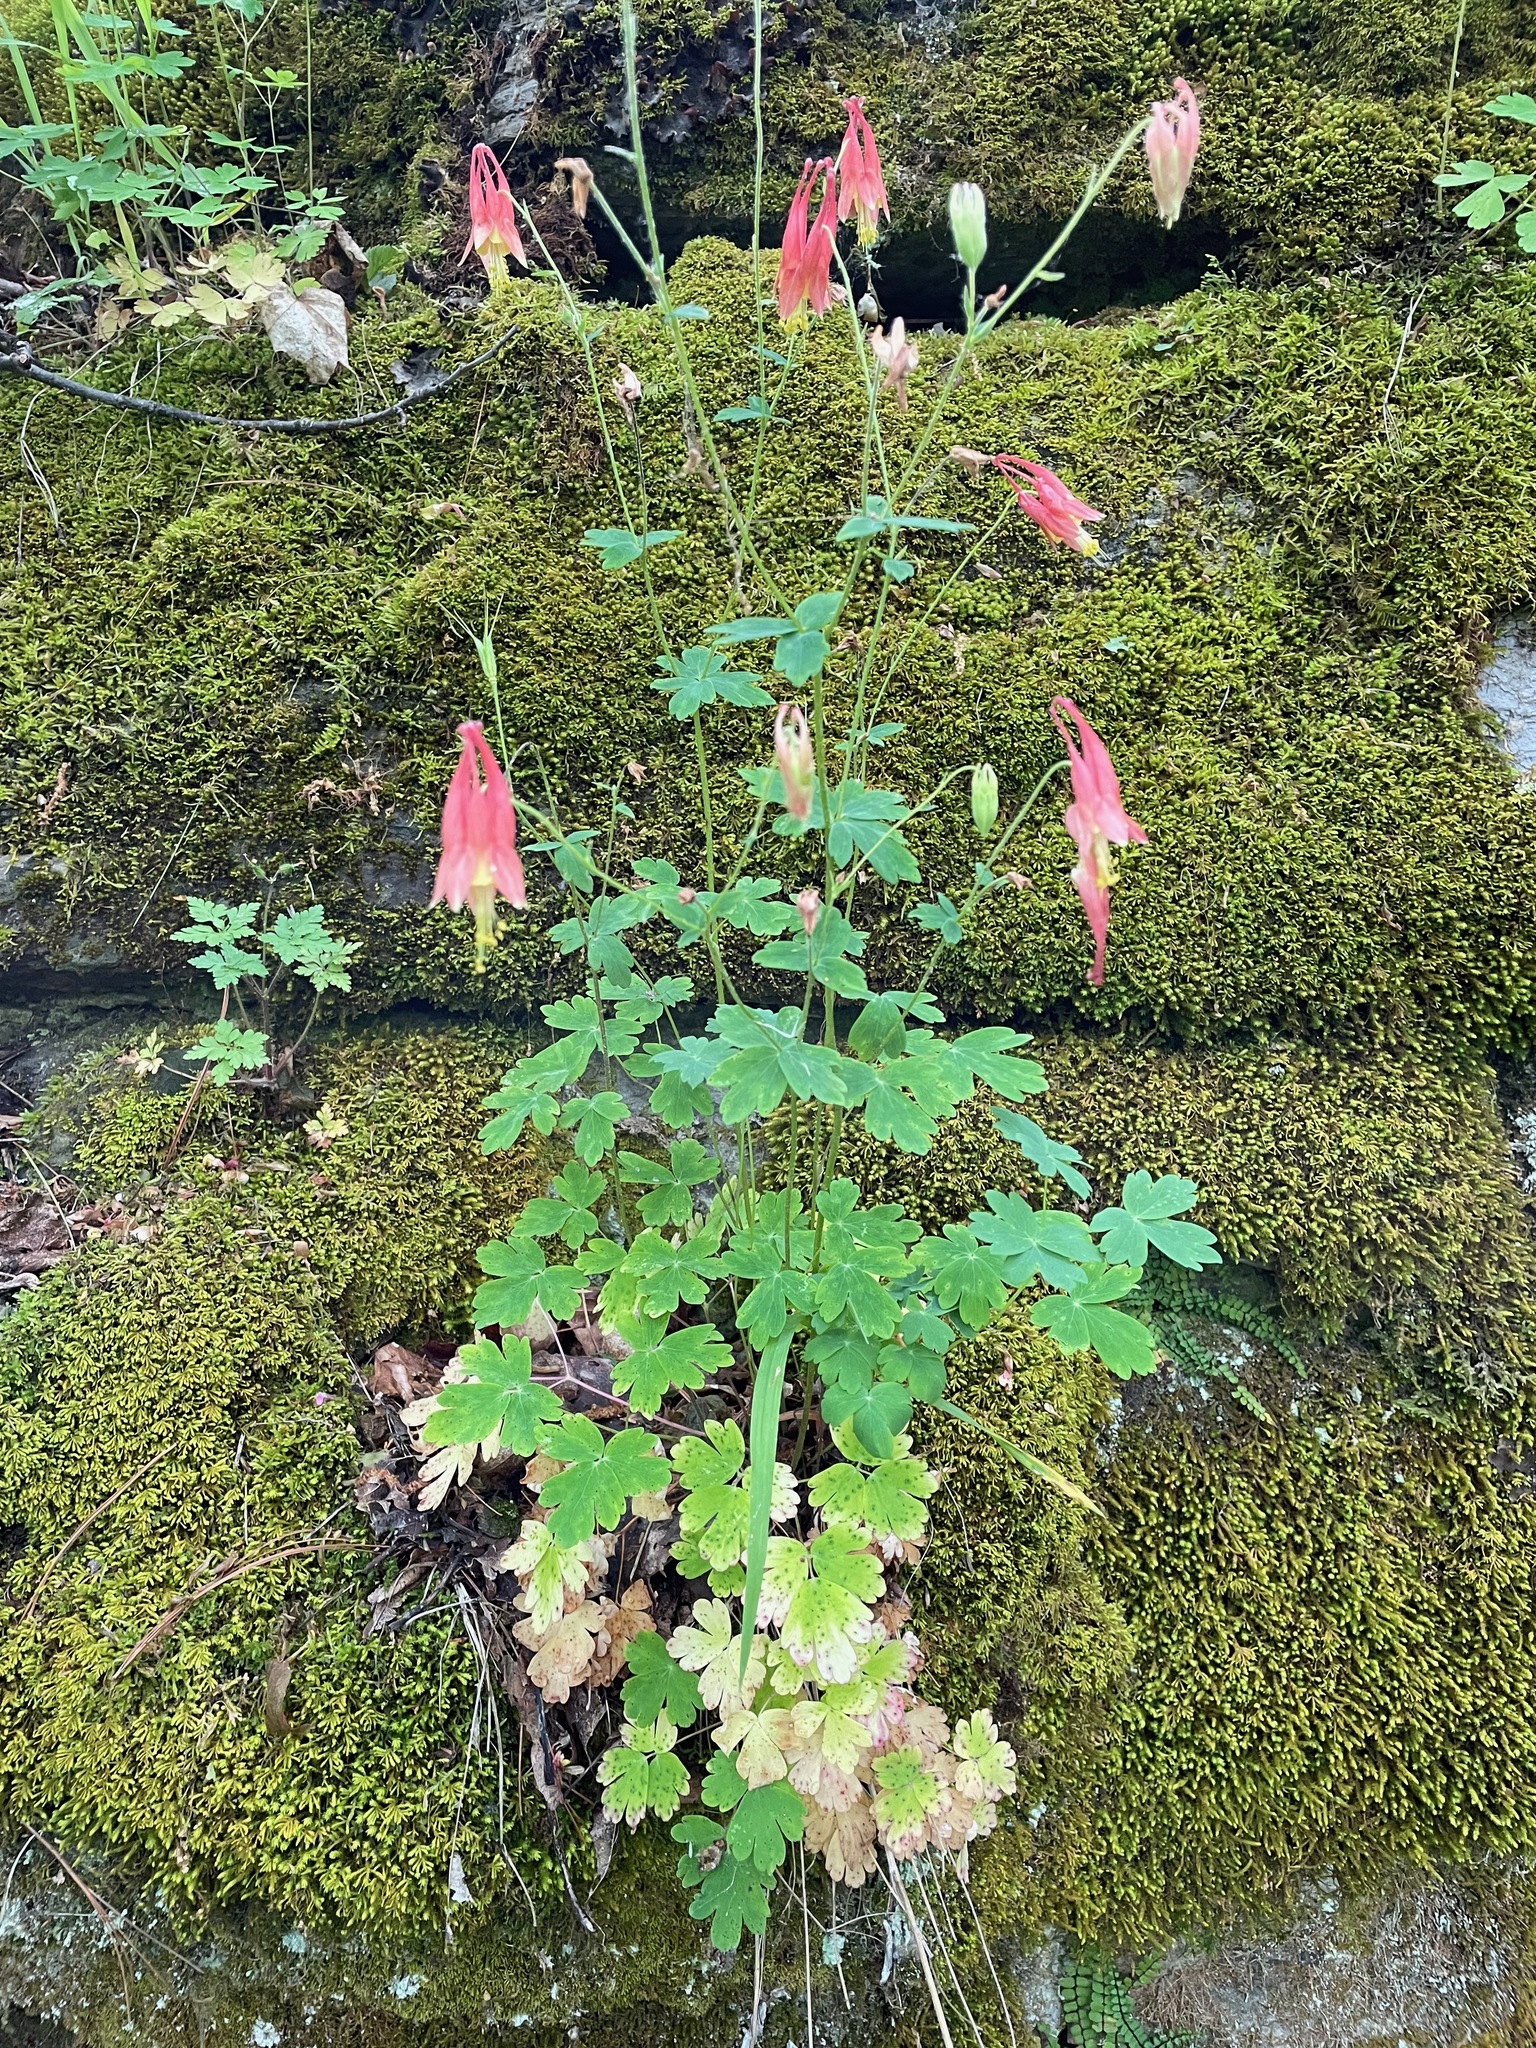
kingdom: Plantae
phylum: Tracheophyta
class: Magnoliopsida
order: Ranunculales
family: Ranunculaceae
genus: Aquilegia
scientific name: Aquilegia canadensis
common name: American columbine
